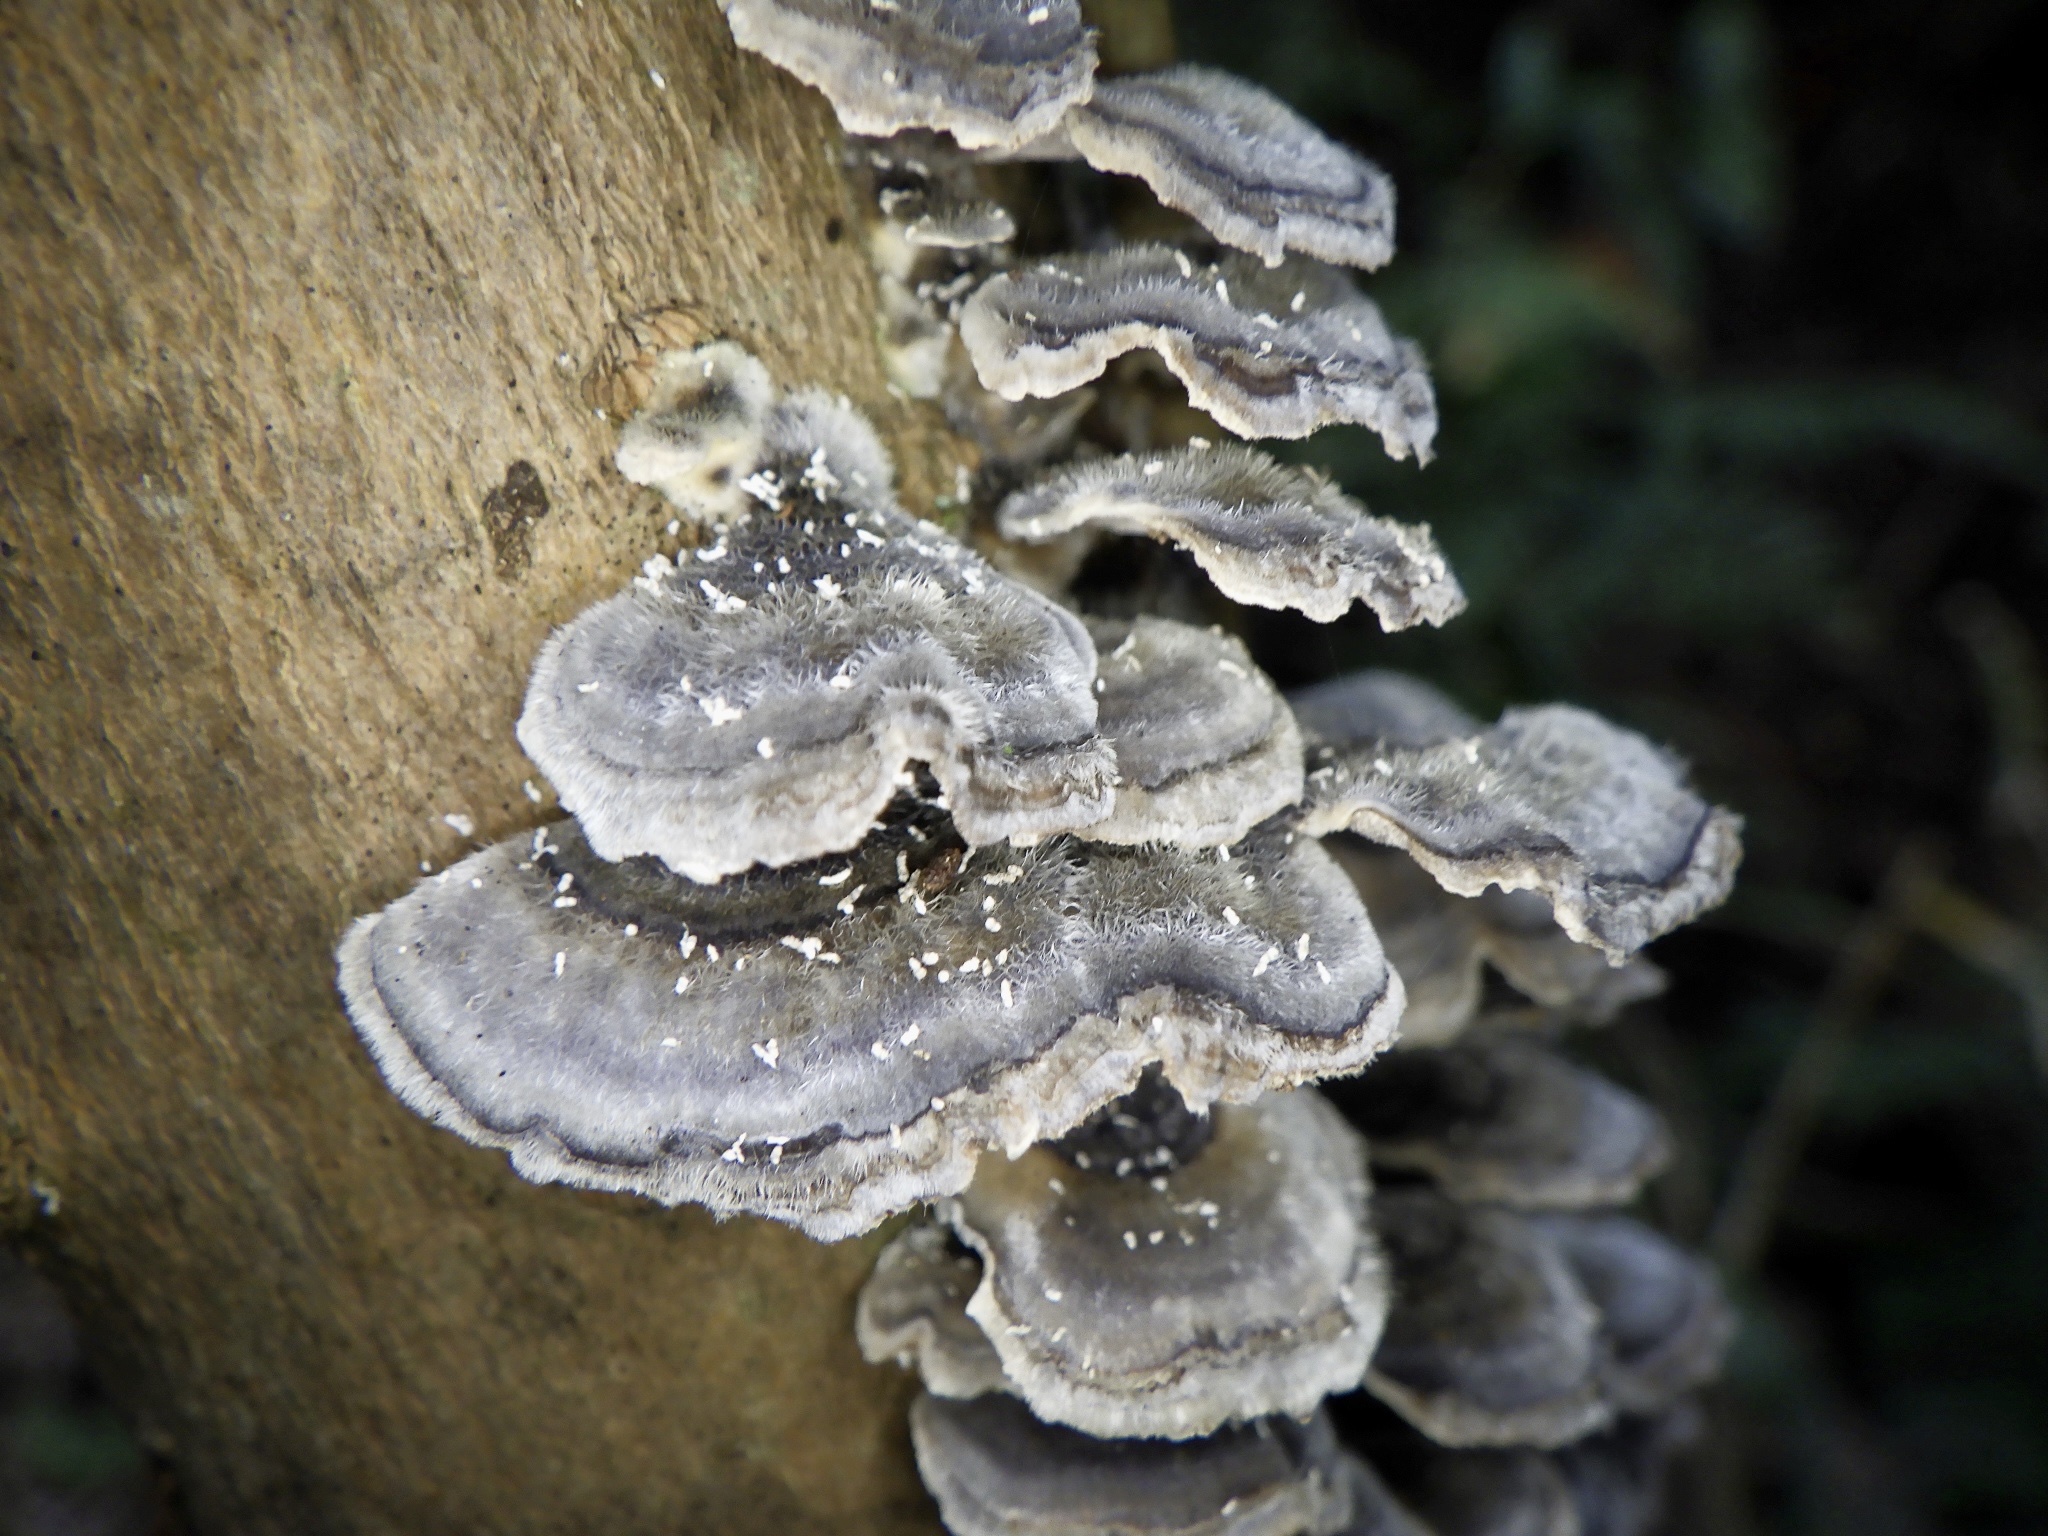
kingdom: Fungi
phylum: Basidiomycota
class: Agaricomycetes
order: Polyporales
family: Polyporaceae
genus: Trametes
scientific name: Trametes versicolor
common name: Turkeytail
